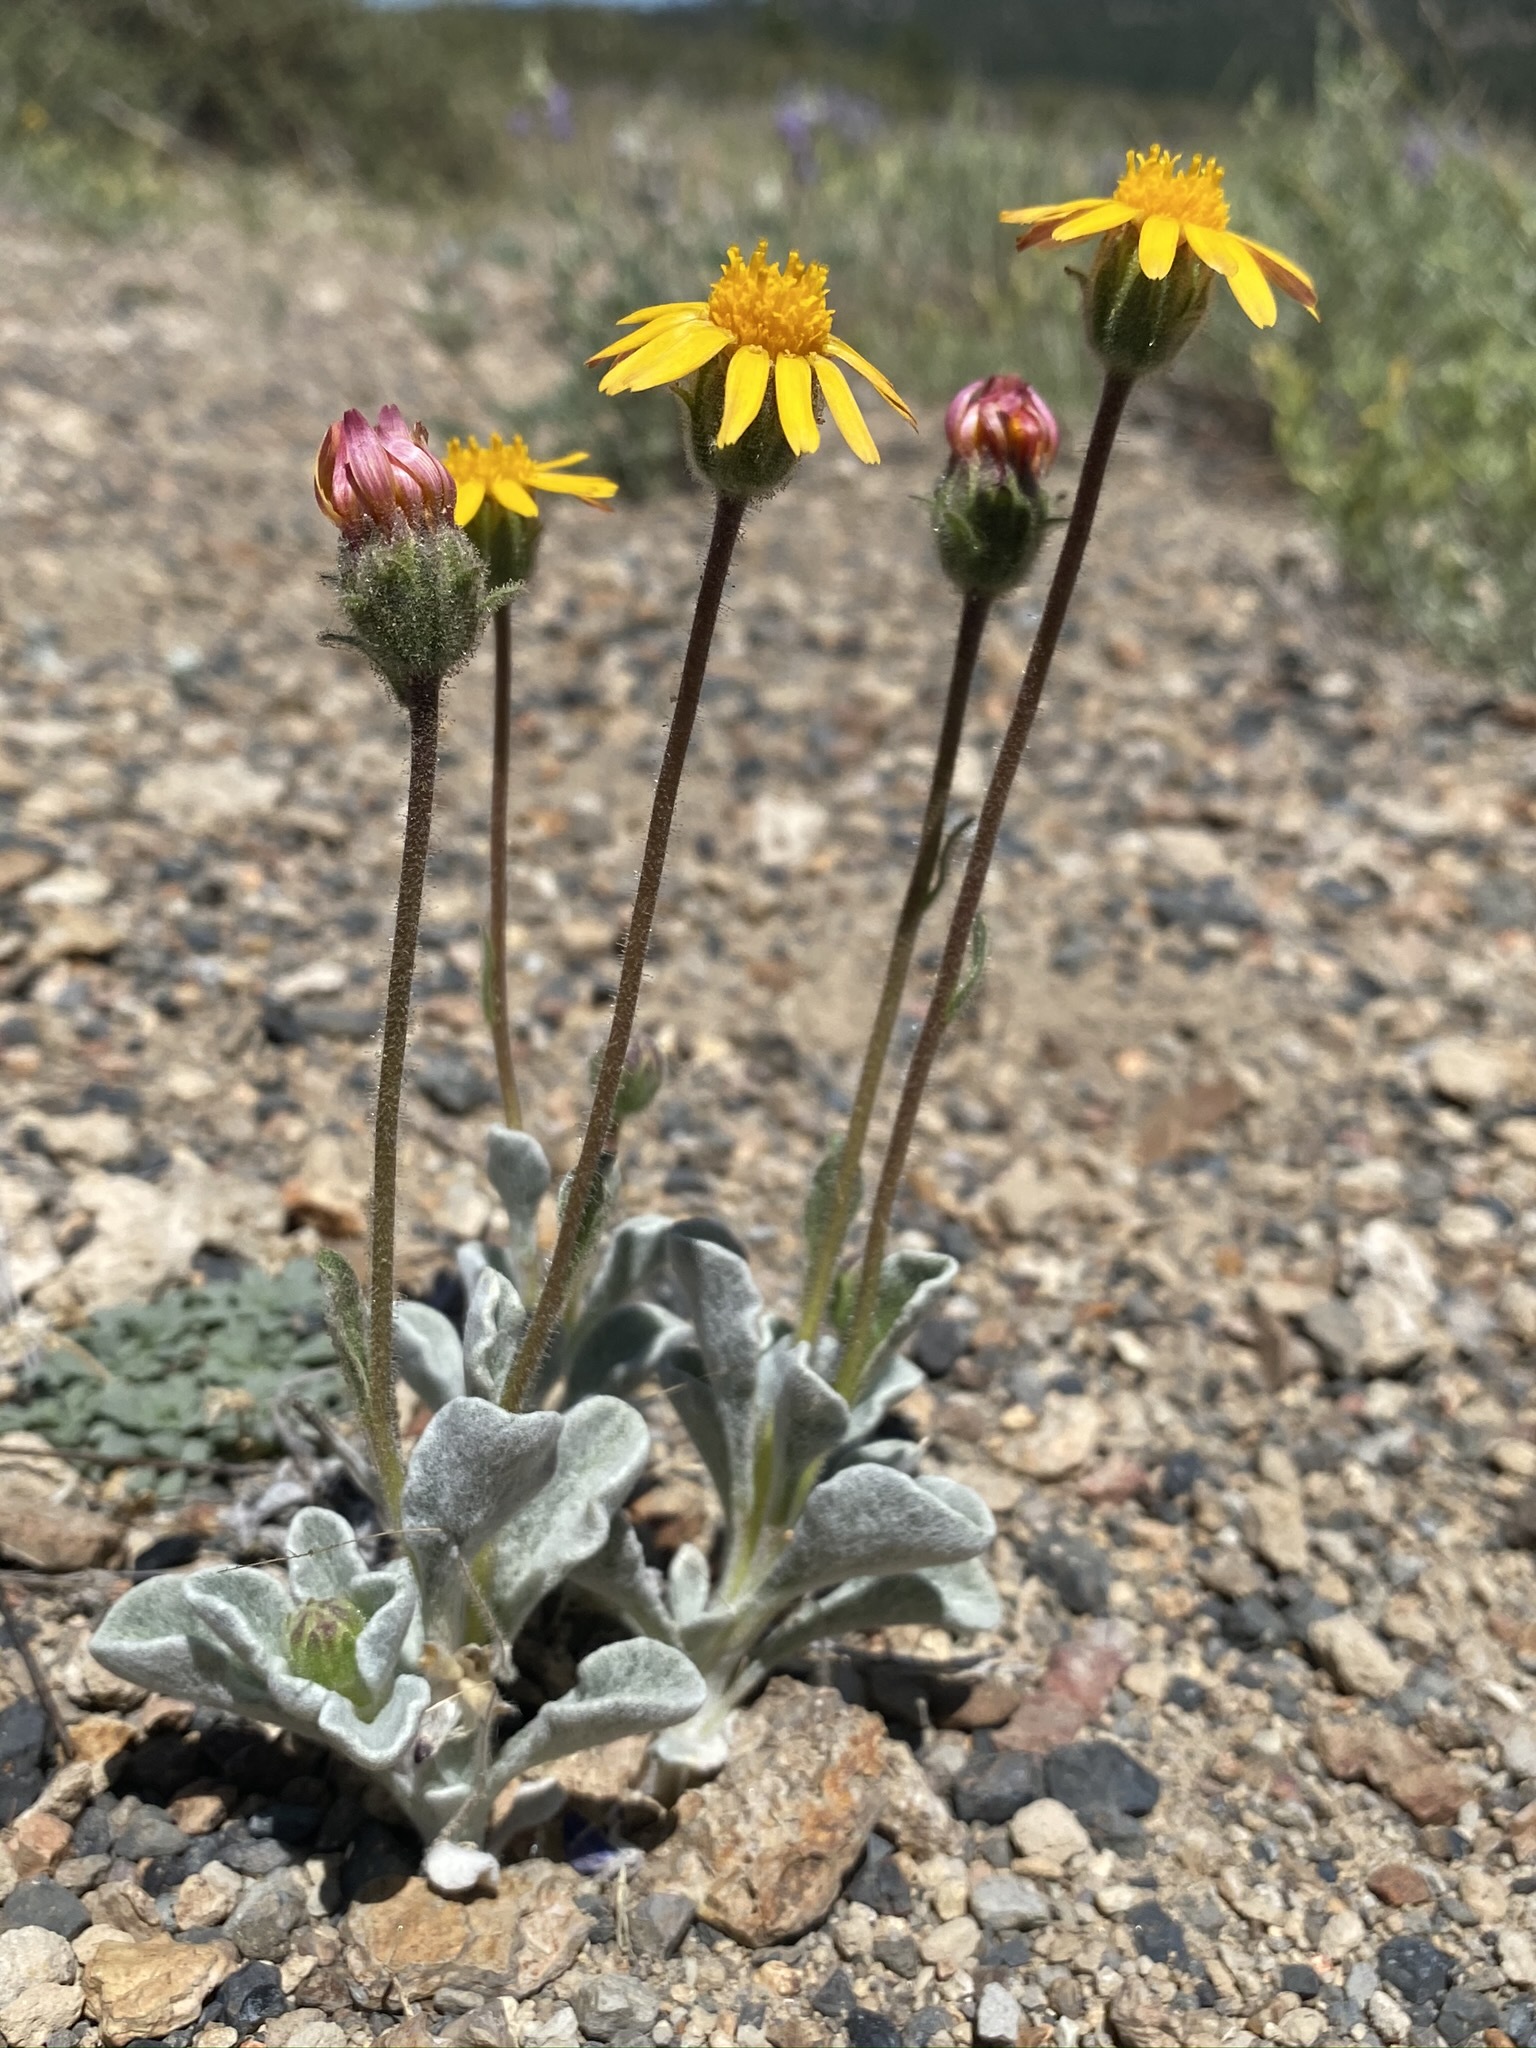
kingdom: Plantae
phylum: Tracheophyta
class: Magnoliopsida
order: Asterales
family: Asteraceae
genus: Hulsea
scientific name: Hulsea vestita
